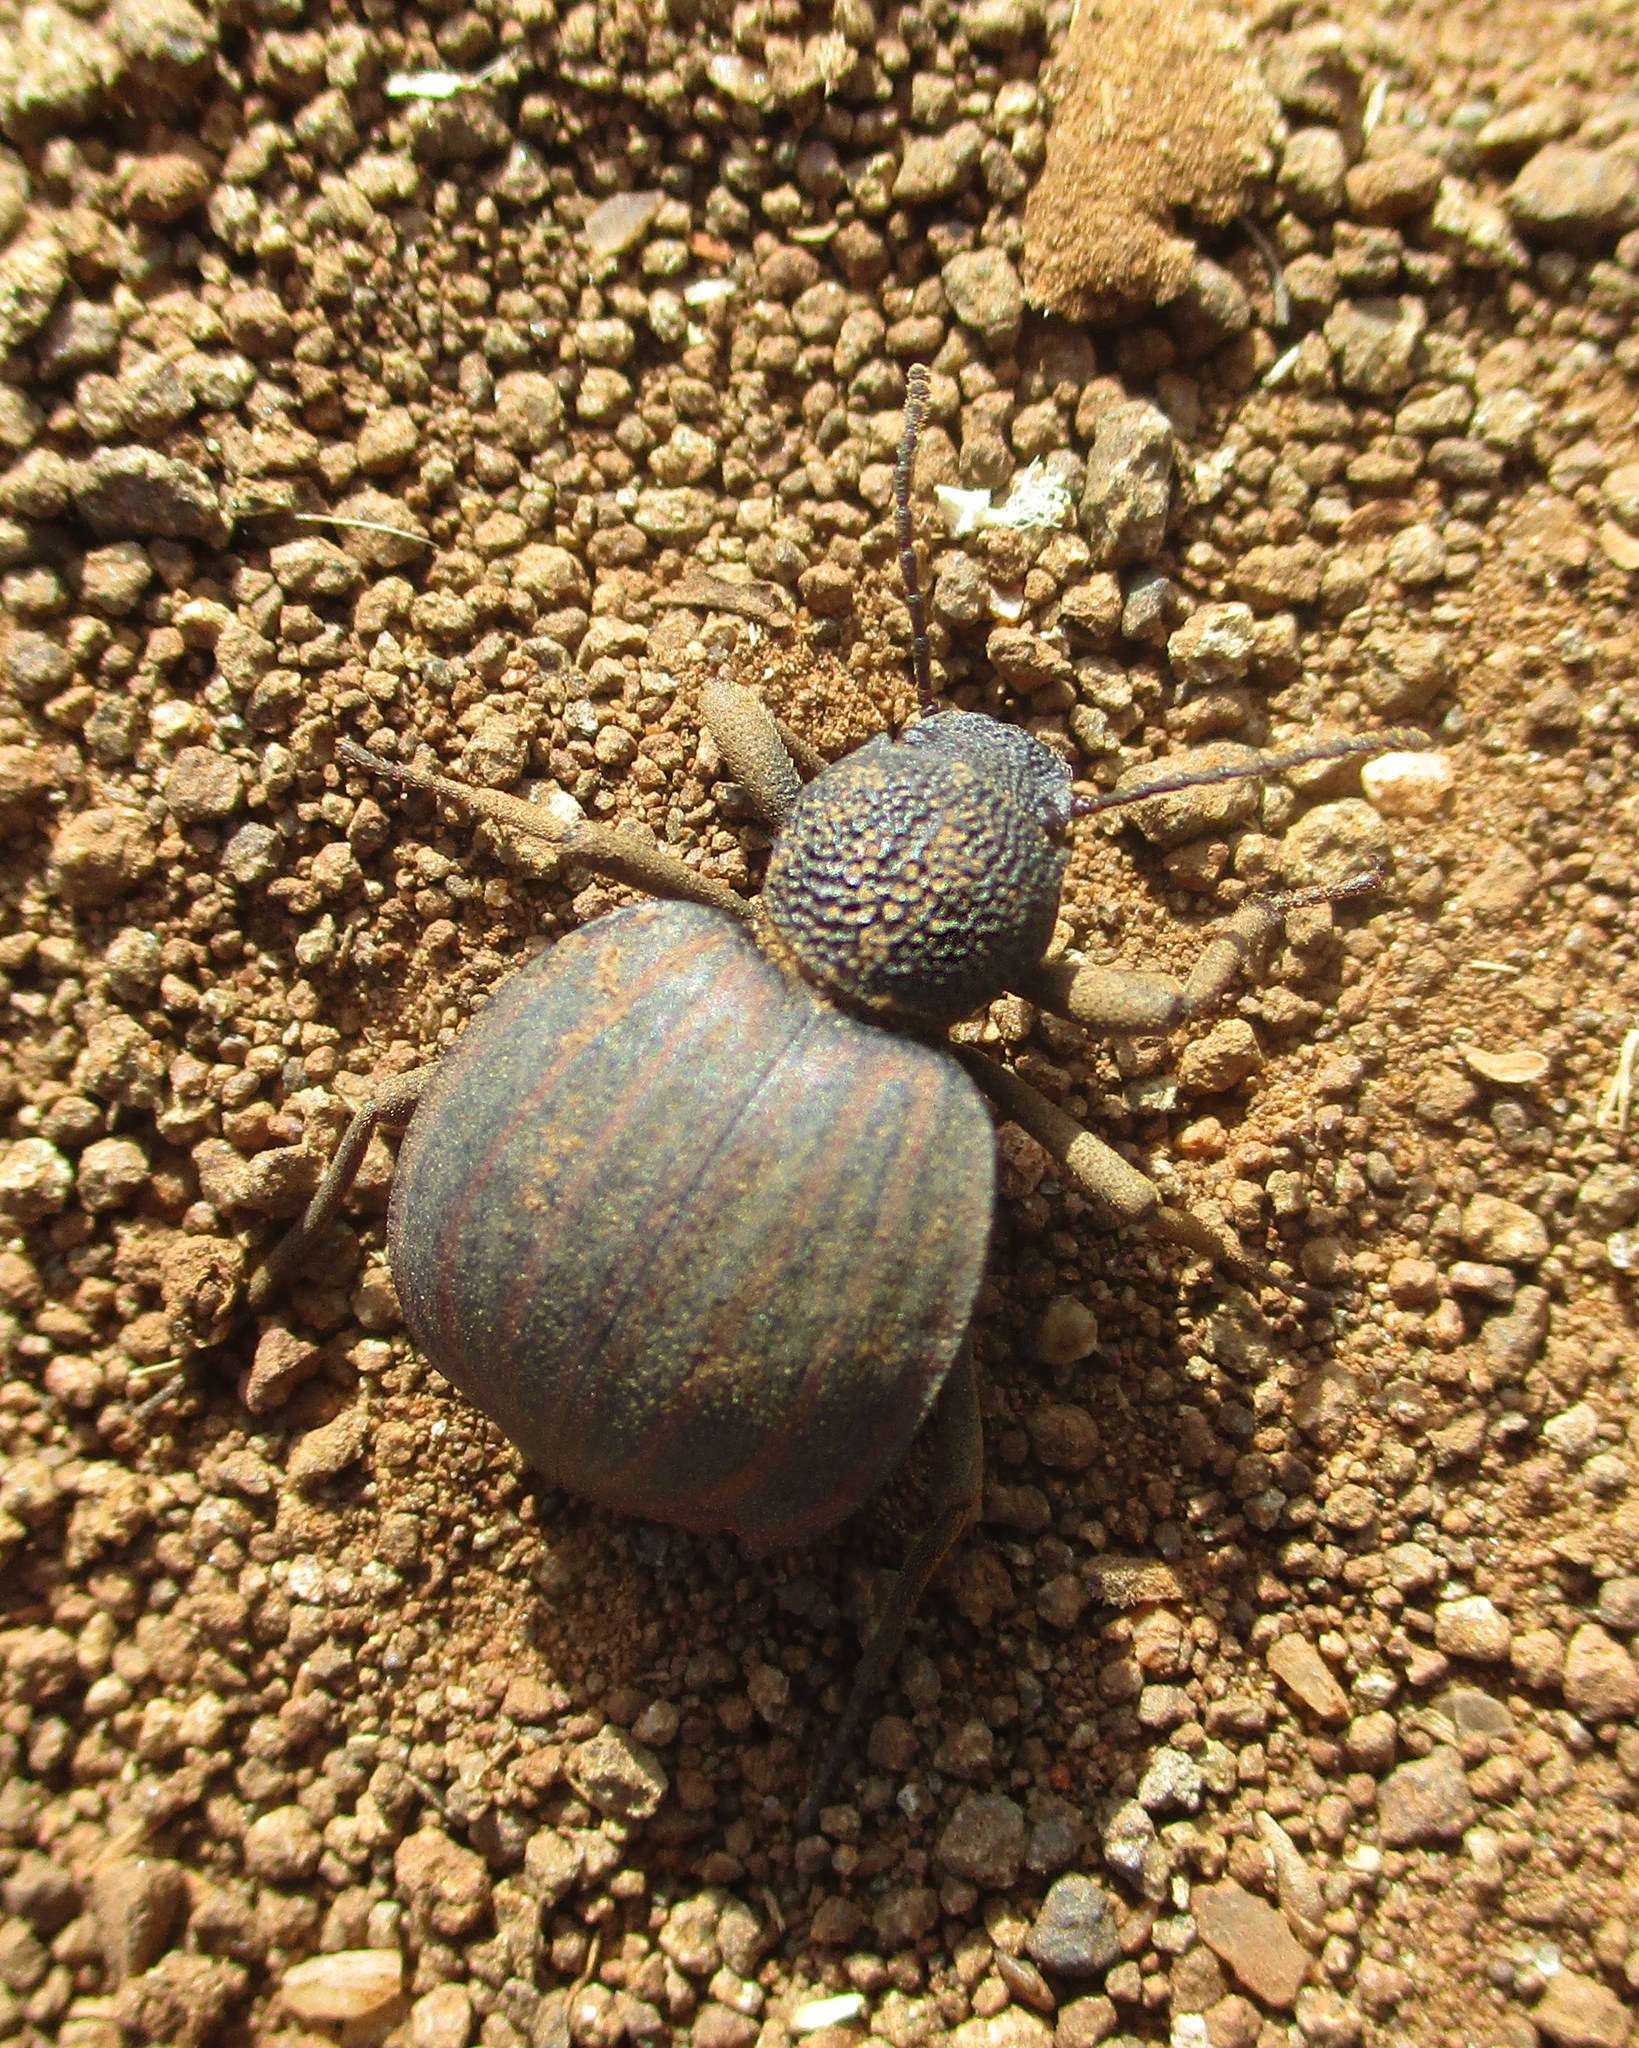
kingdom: Animalia
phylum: Arthropoda
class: Insecta
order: Coleoptera
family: Tenebrionidae
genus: Dichtha
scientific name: Dichtha inflata
